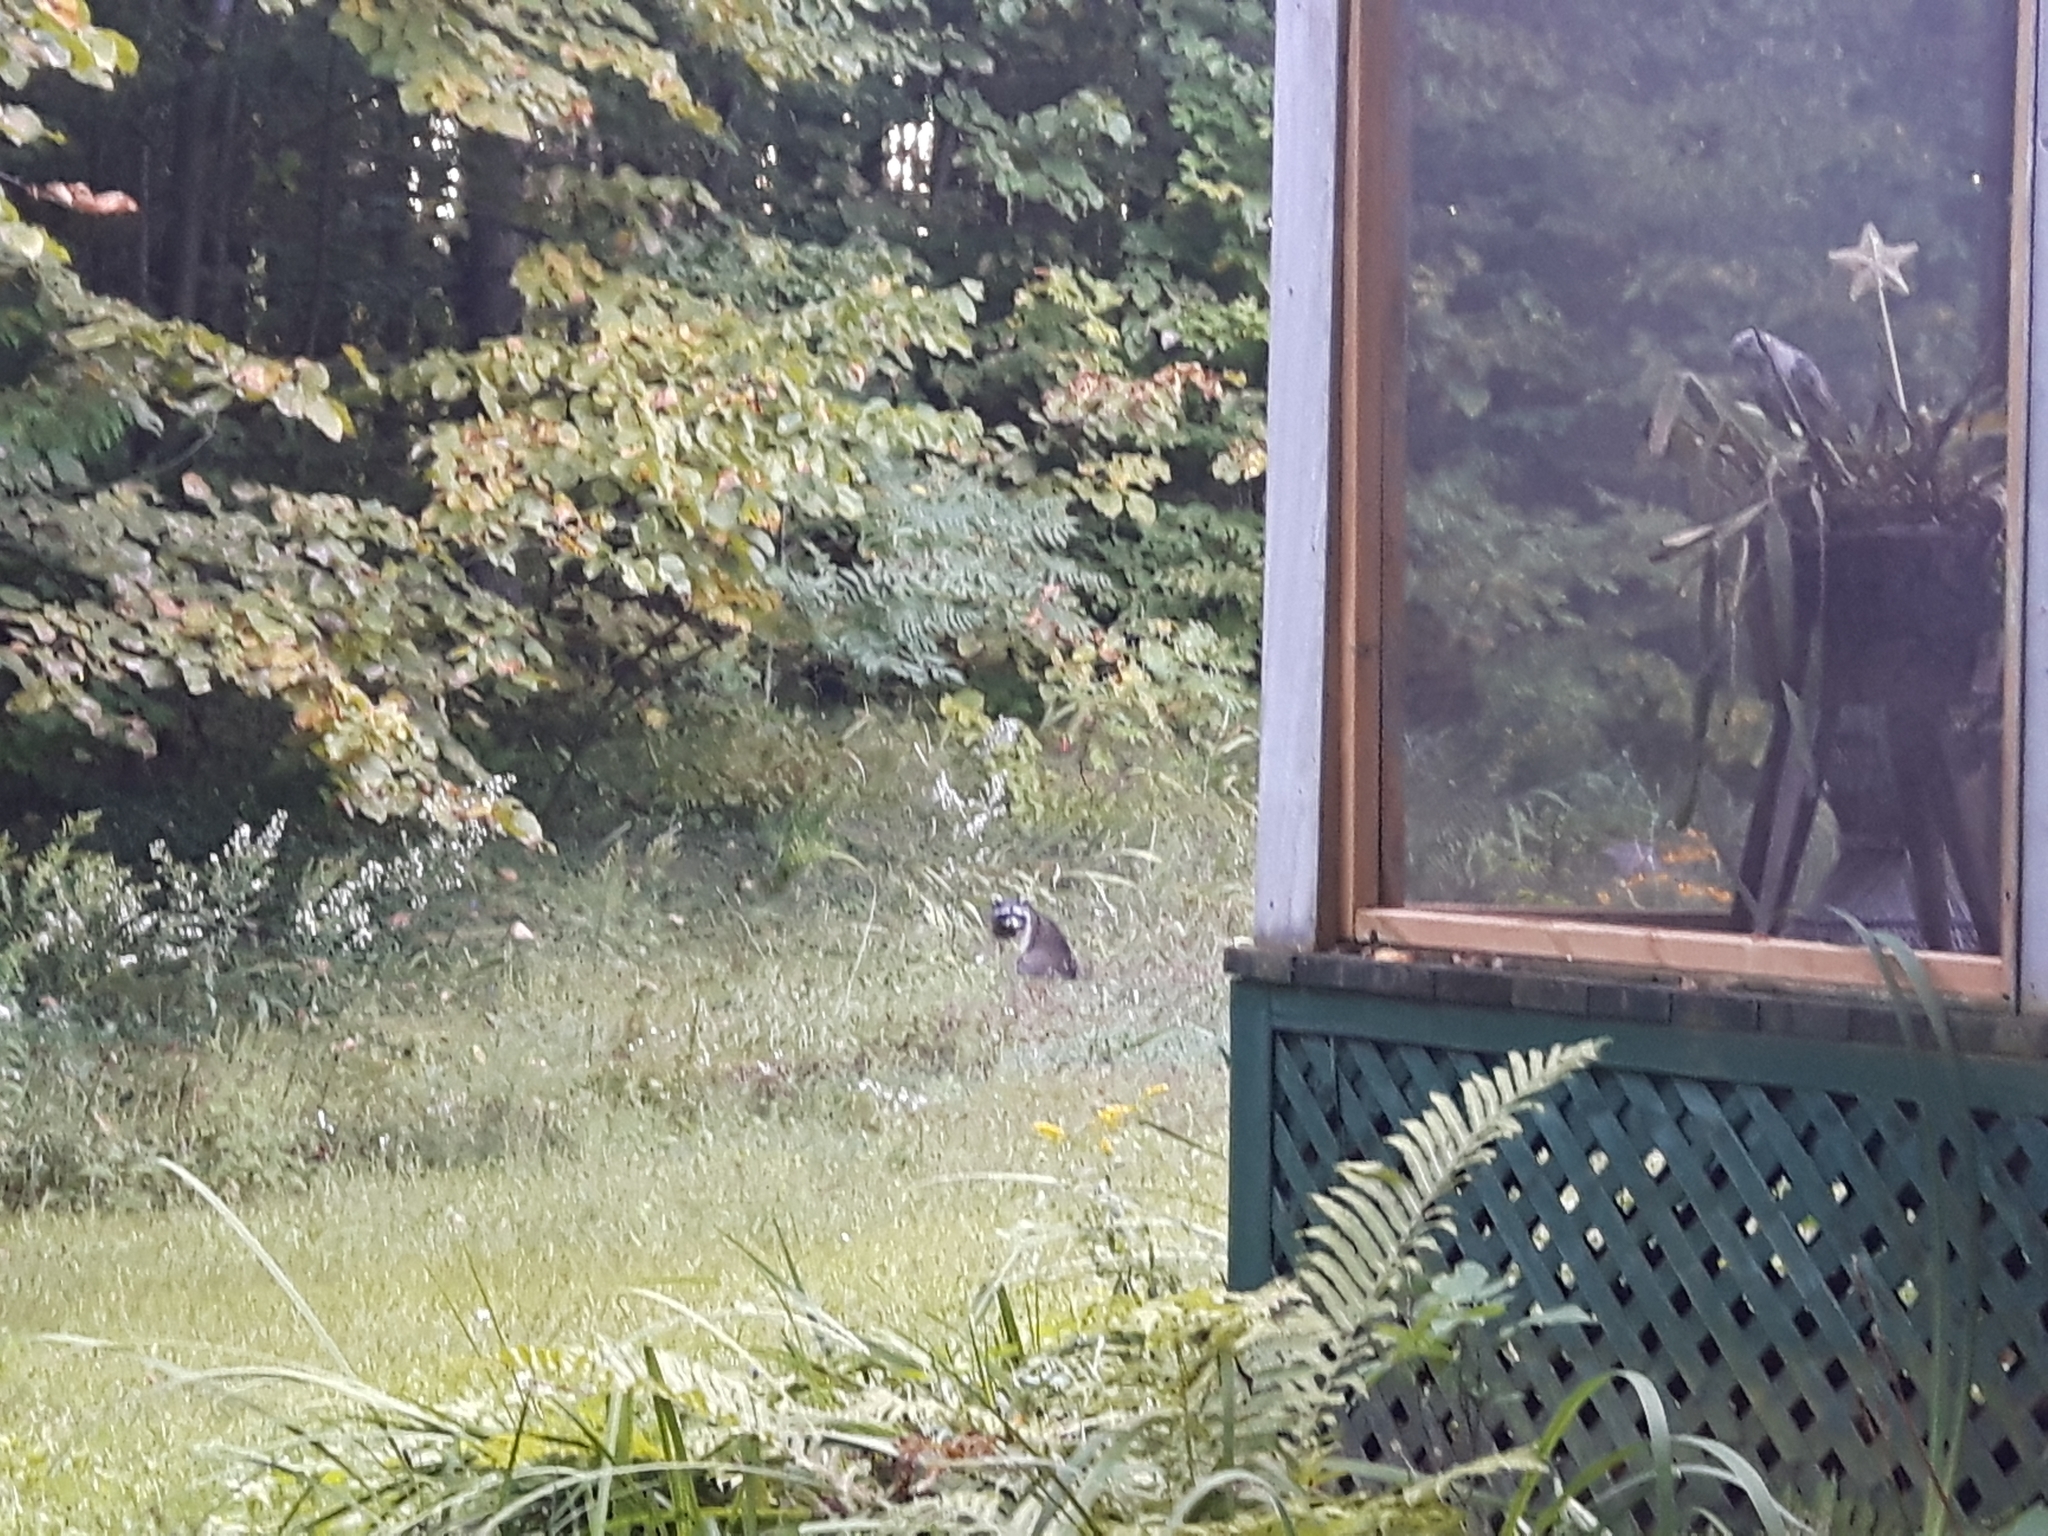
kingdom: Animalia
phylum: Chordata
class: Mammalia
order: Carnivora
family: Procyonidae
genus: Procyon
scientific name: Procyon lotor
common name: Raccoon
